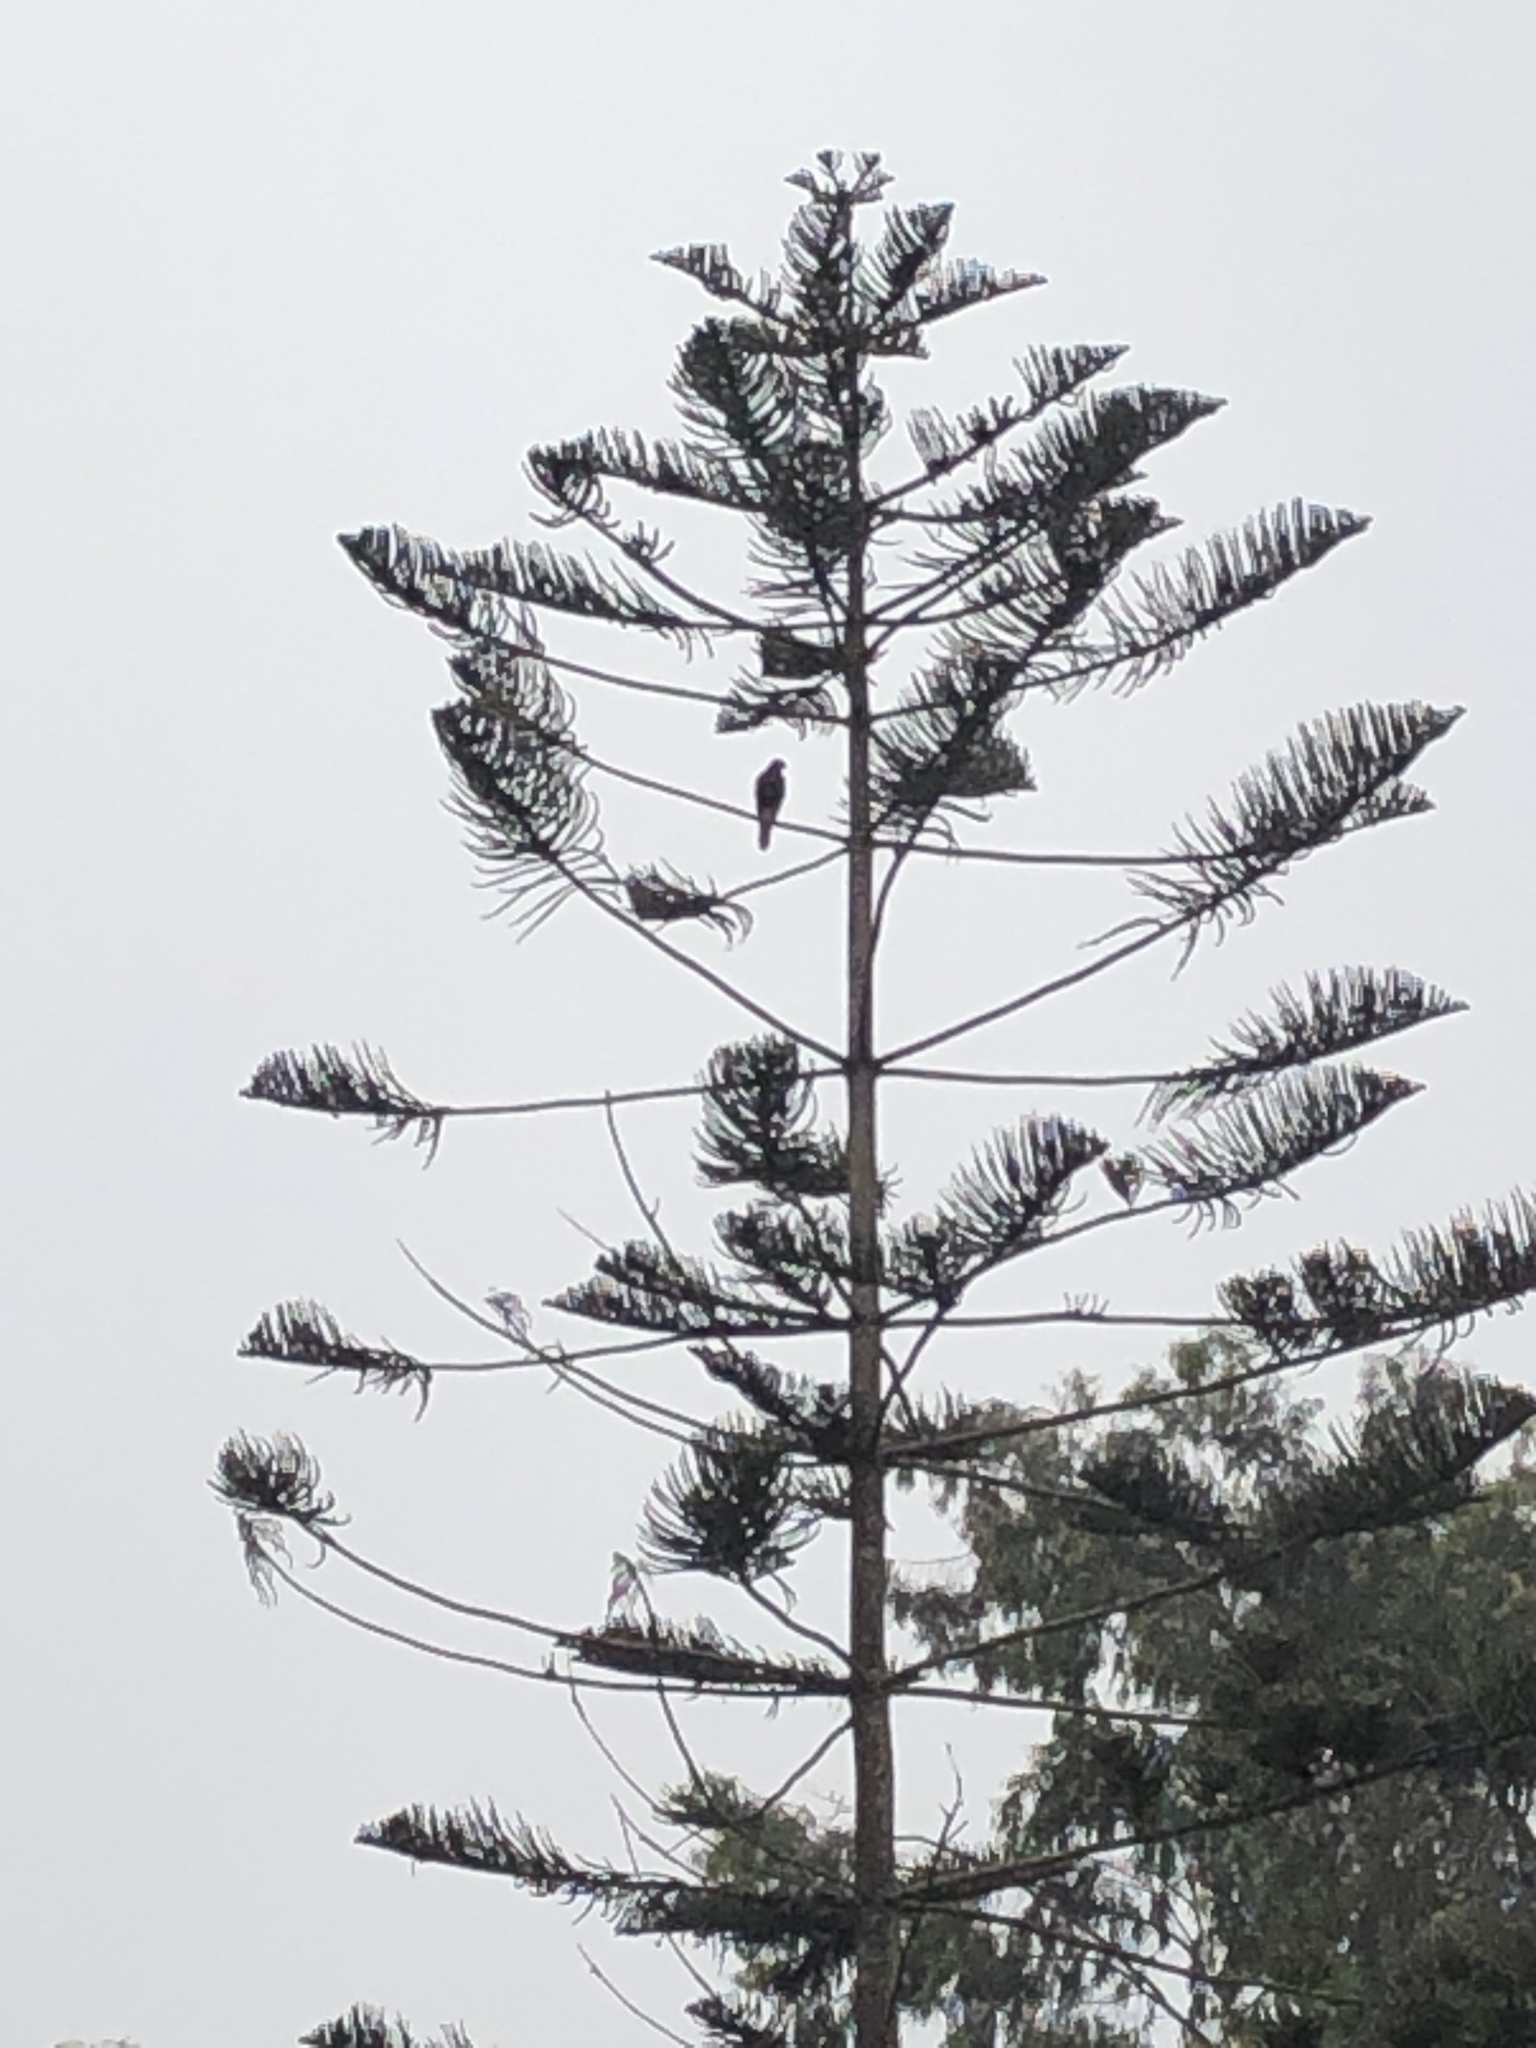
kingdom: Animalia
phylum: Chordata
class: Aves
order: Accipitriformes
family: Accipitridae
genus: Parabuteo
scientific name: Parabuteo unicinctus
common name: Harris's hawk
